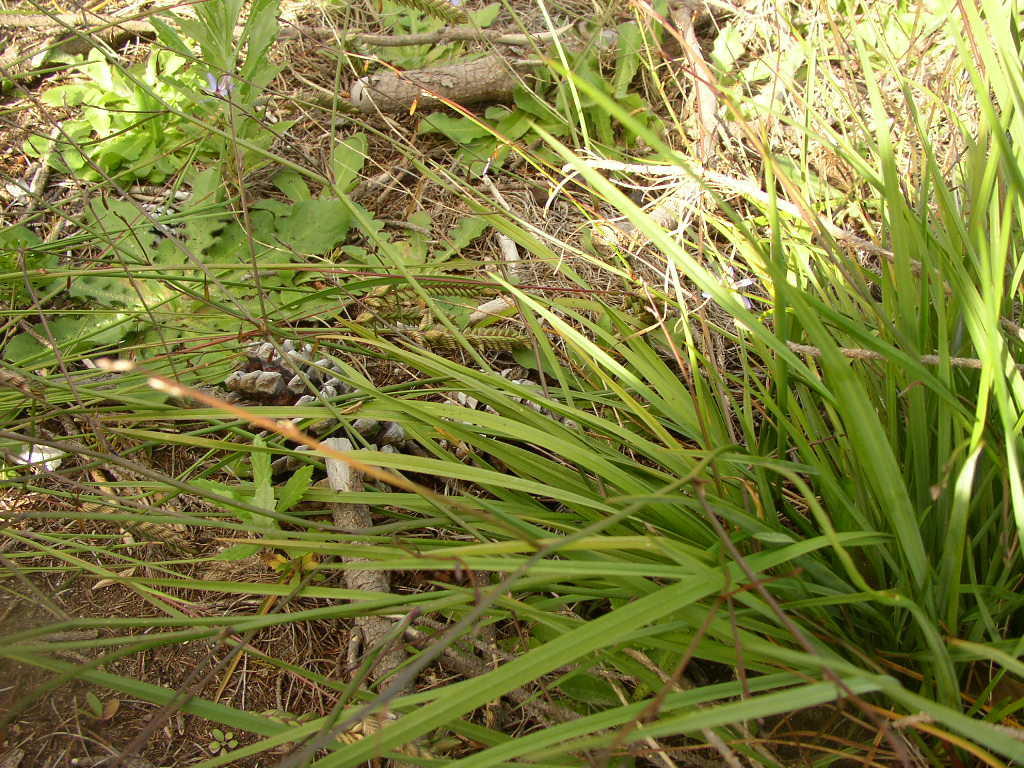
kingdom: Plantae
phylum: Tracheophyta
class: Liliopsida
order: Asparagales
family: Asphodelaceae
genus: Caesia
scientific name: Caesia contorta
